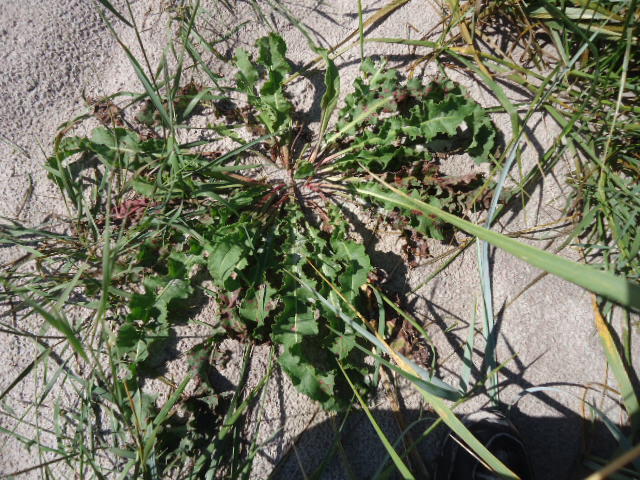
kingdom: Plantae
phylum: Tracheophyta
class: Magnoliopsida
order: Caryophyllales
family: Polygonaceae
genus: Rumex
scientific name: Rumex crispus
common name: Curled dock
